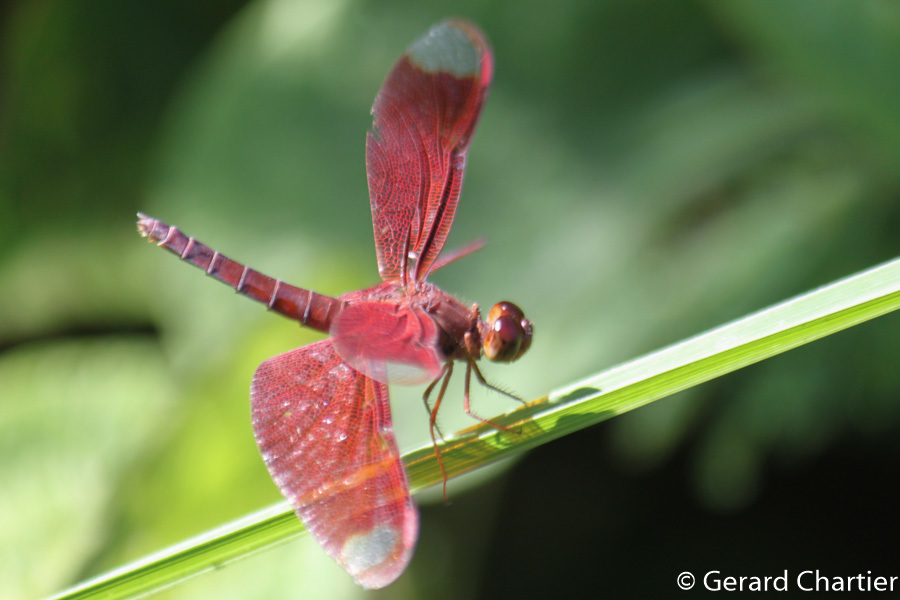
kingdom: Animalia
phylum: Arthropoda
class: Insecta
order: Odonata
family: Libellulidae
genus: Neurothemis
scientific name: Neurothemis fulvia
